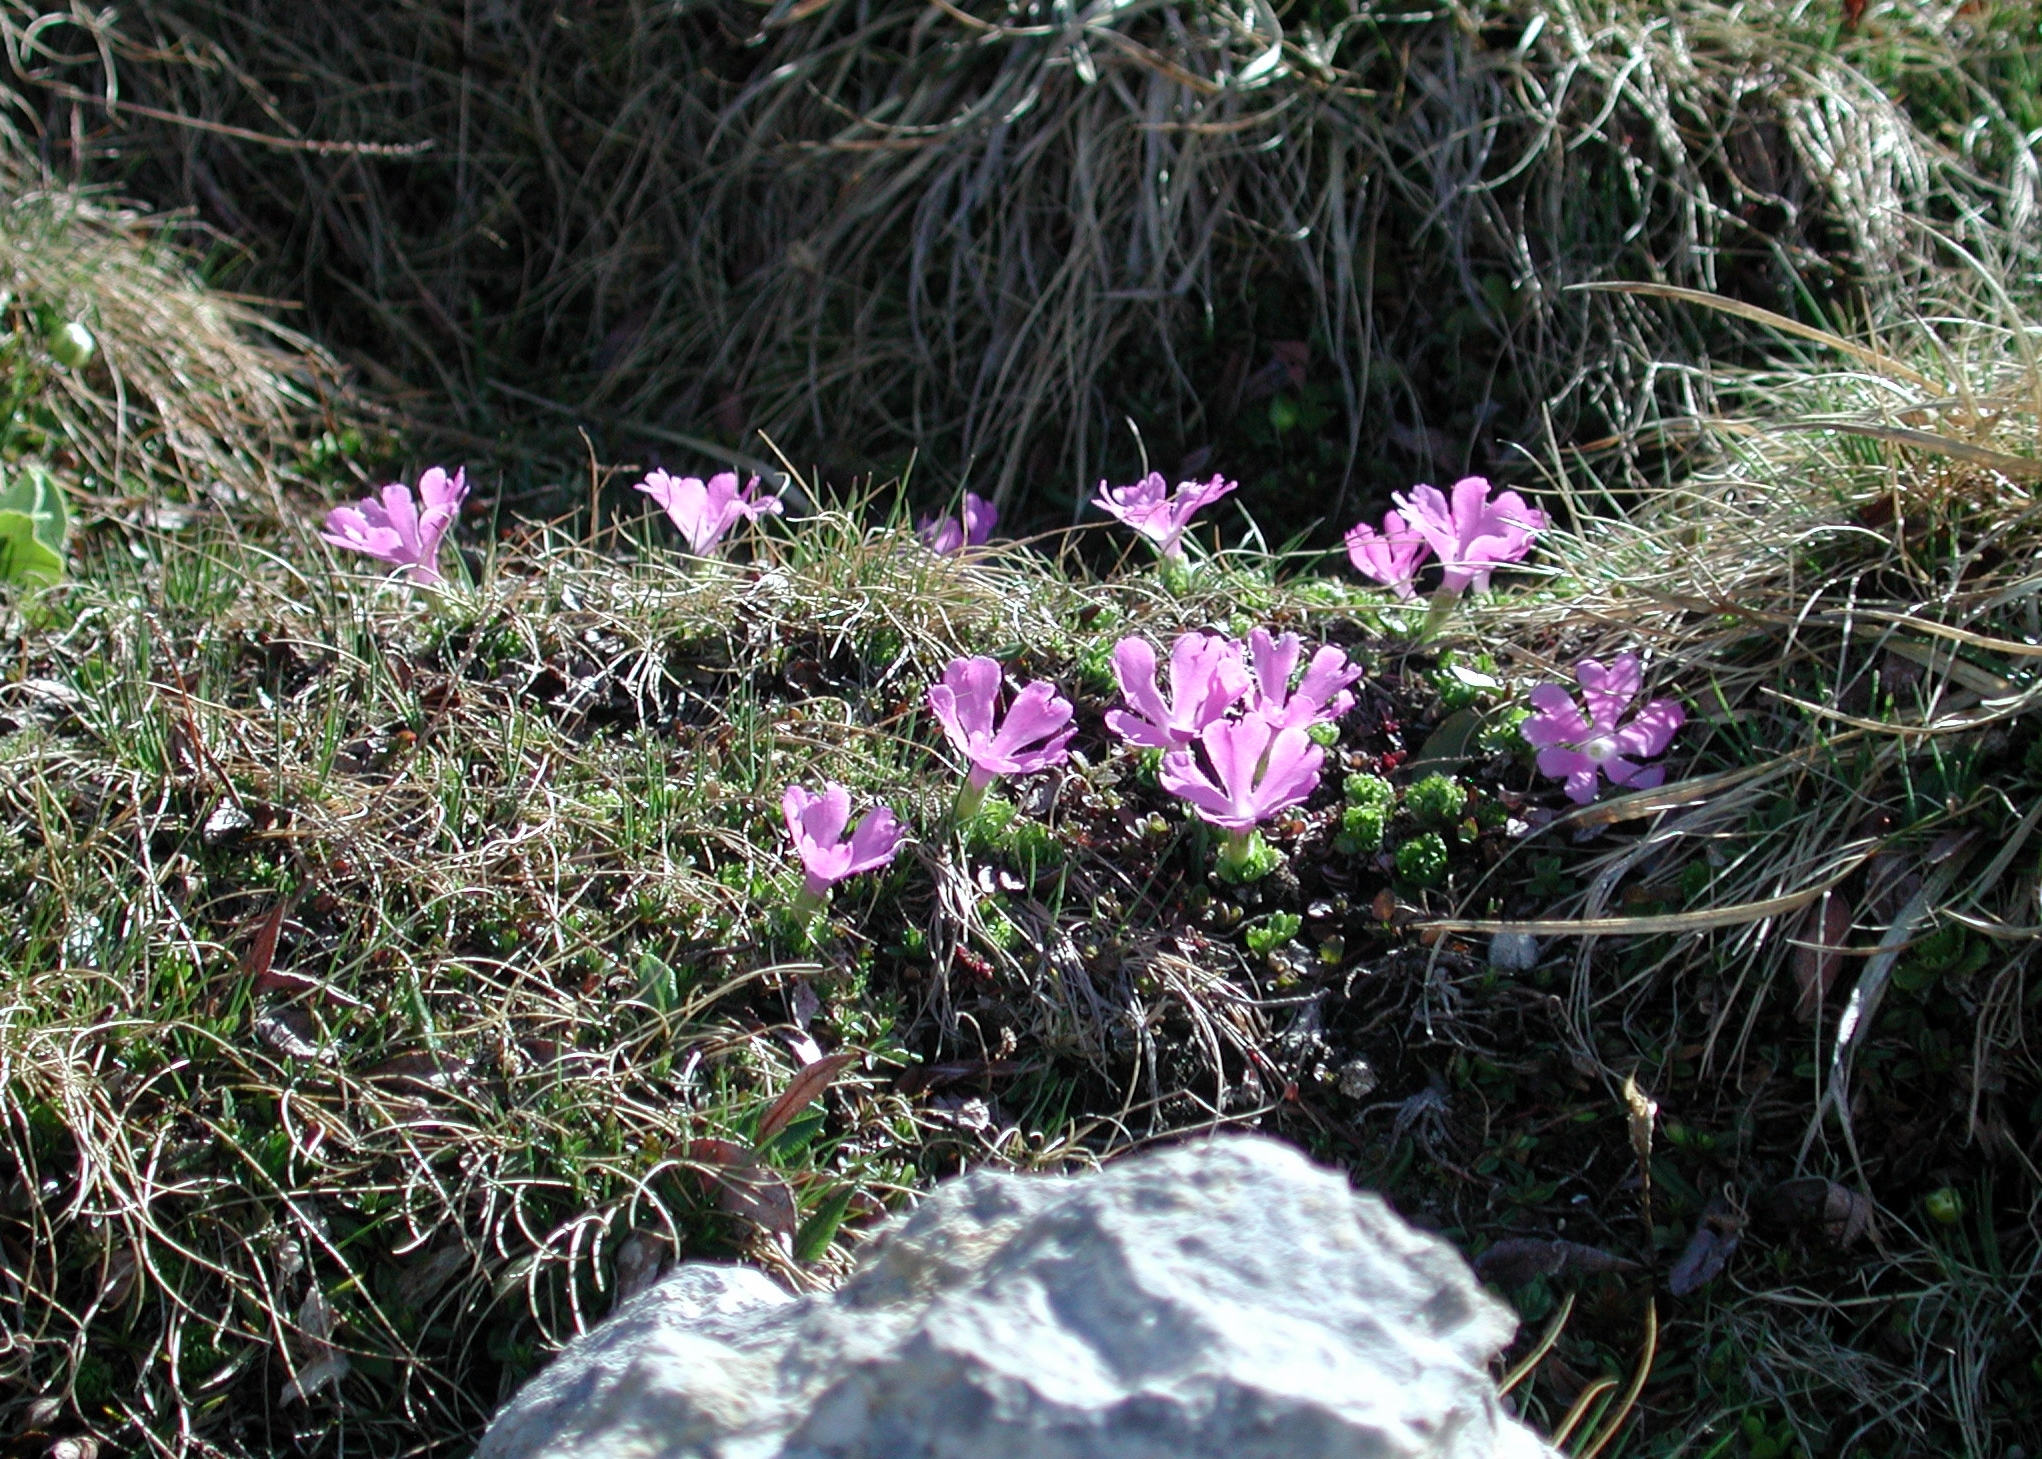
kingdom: Plantae
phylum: Tracheophyta
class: Magnoliopsida
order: Ericales
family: Primulaceae
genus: Primula
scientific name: Primula minima
